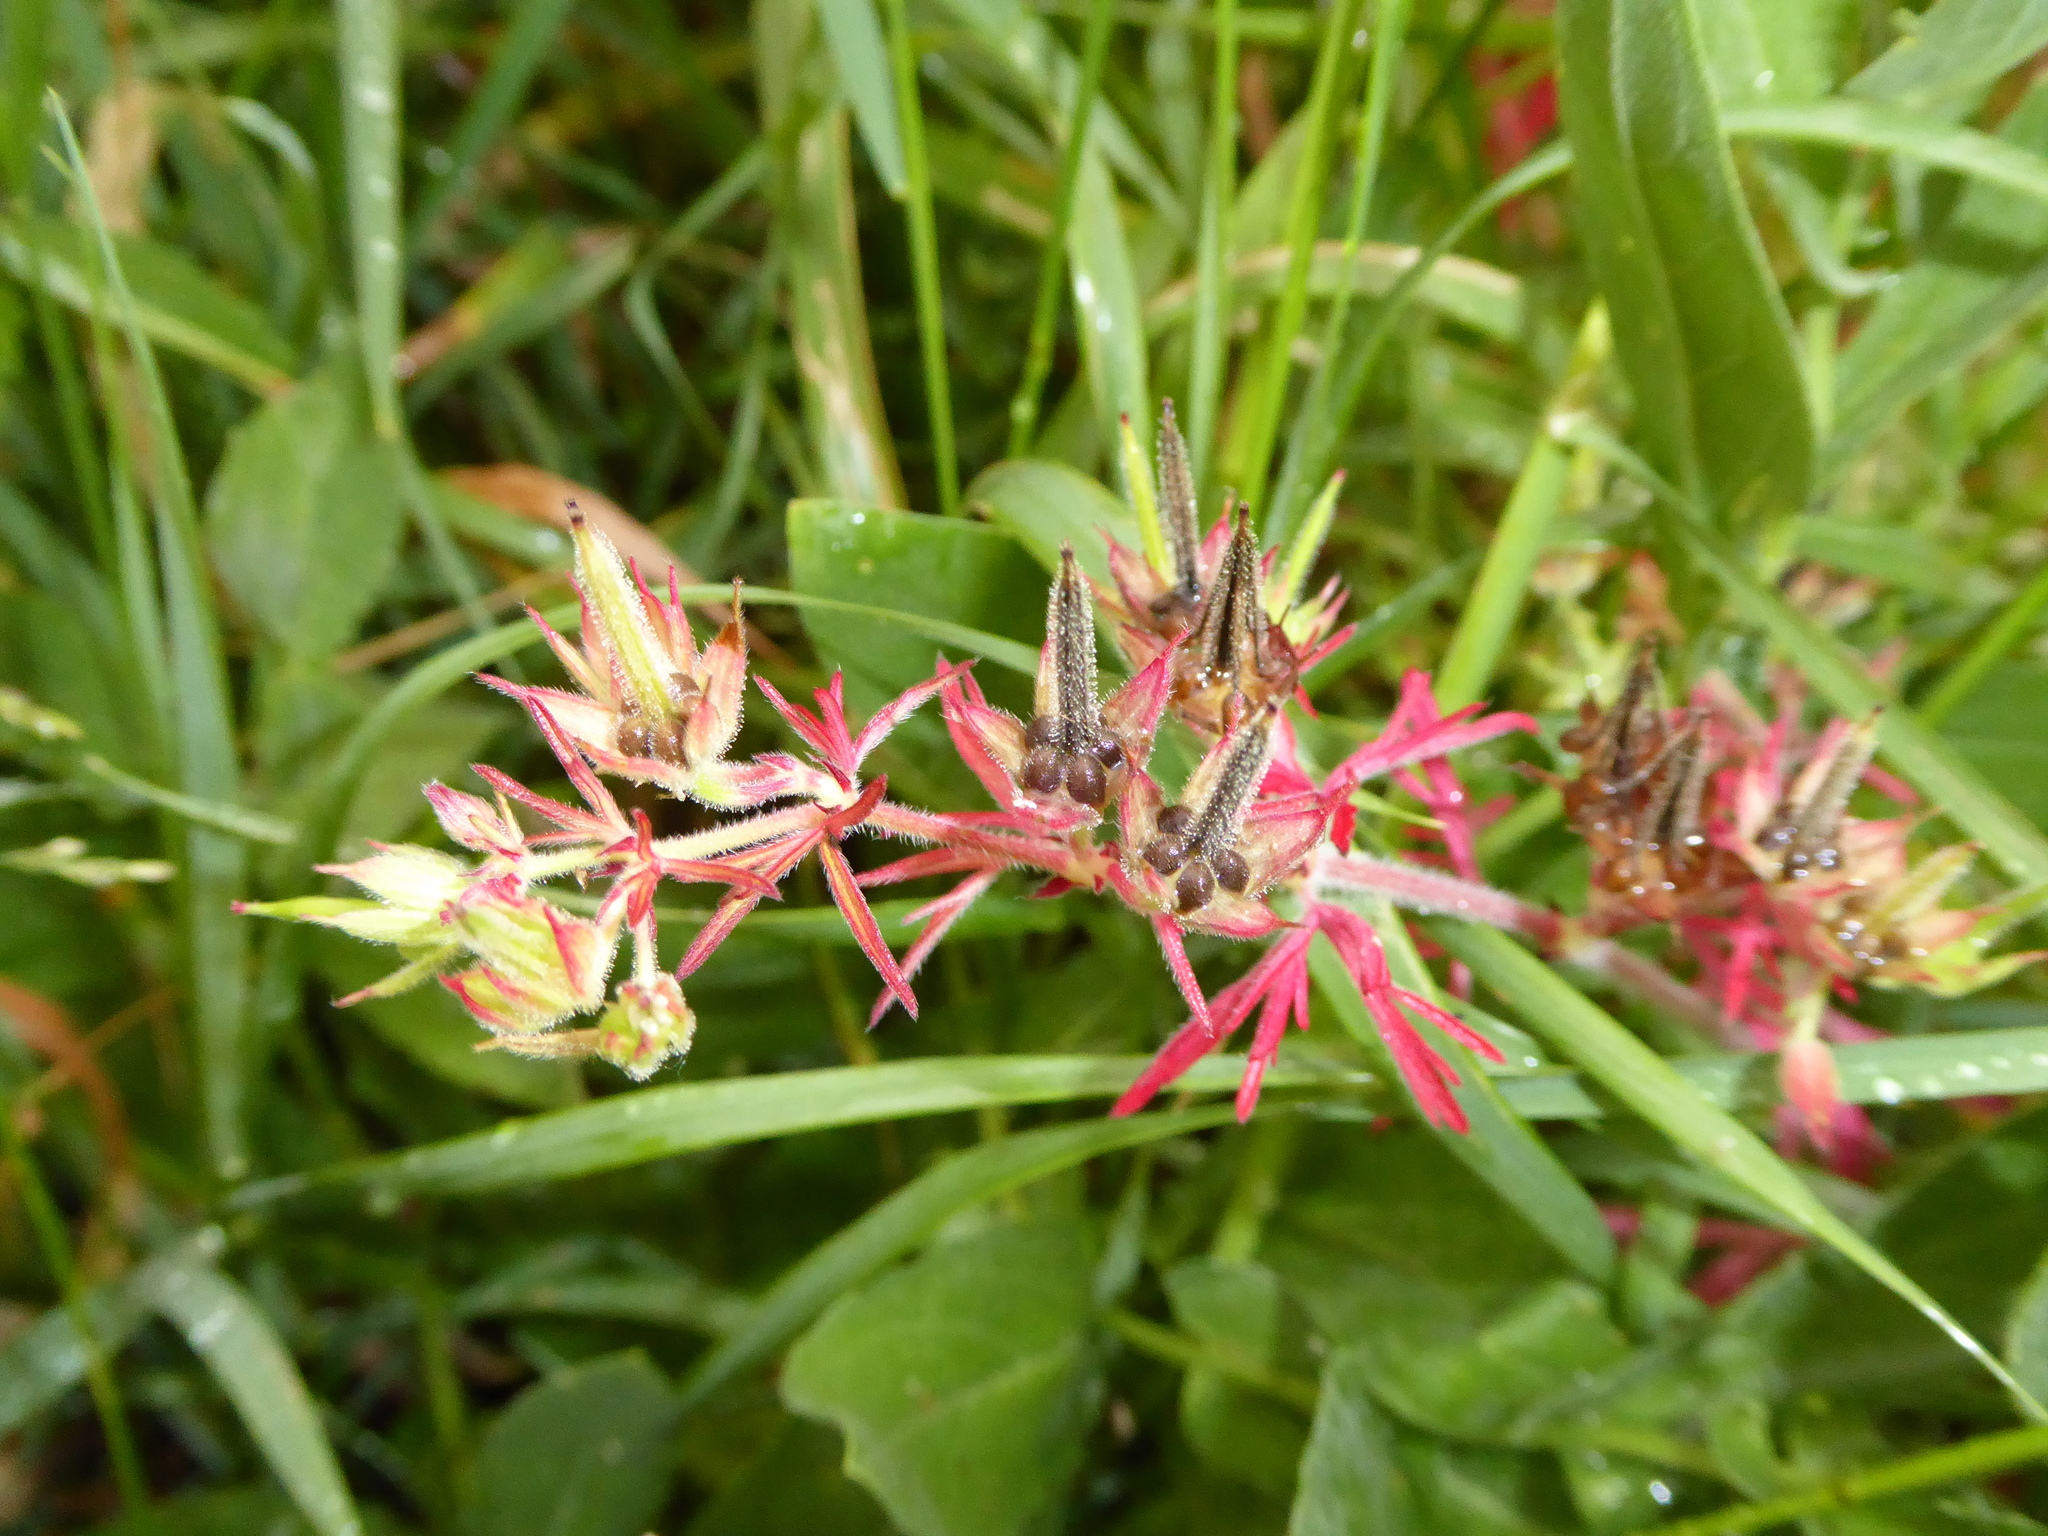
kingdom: Plantae
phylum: Tracheophyta
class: Magnoliopsida
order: Geraniales
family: Geraniaceae
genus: Geranium
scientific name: Geranium dissectum
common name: Cut-leaved crane's-bill
